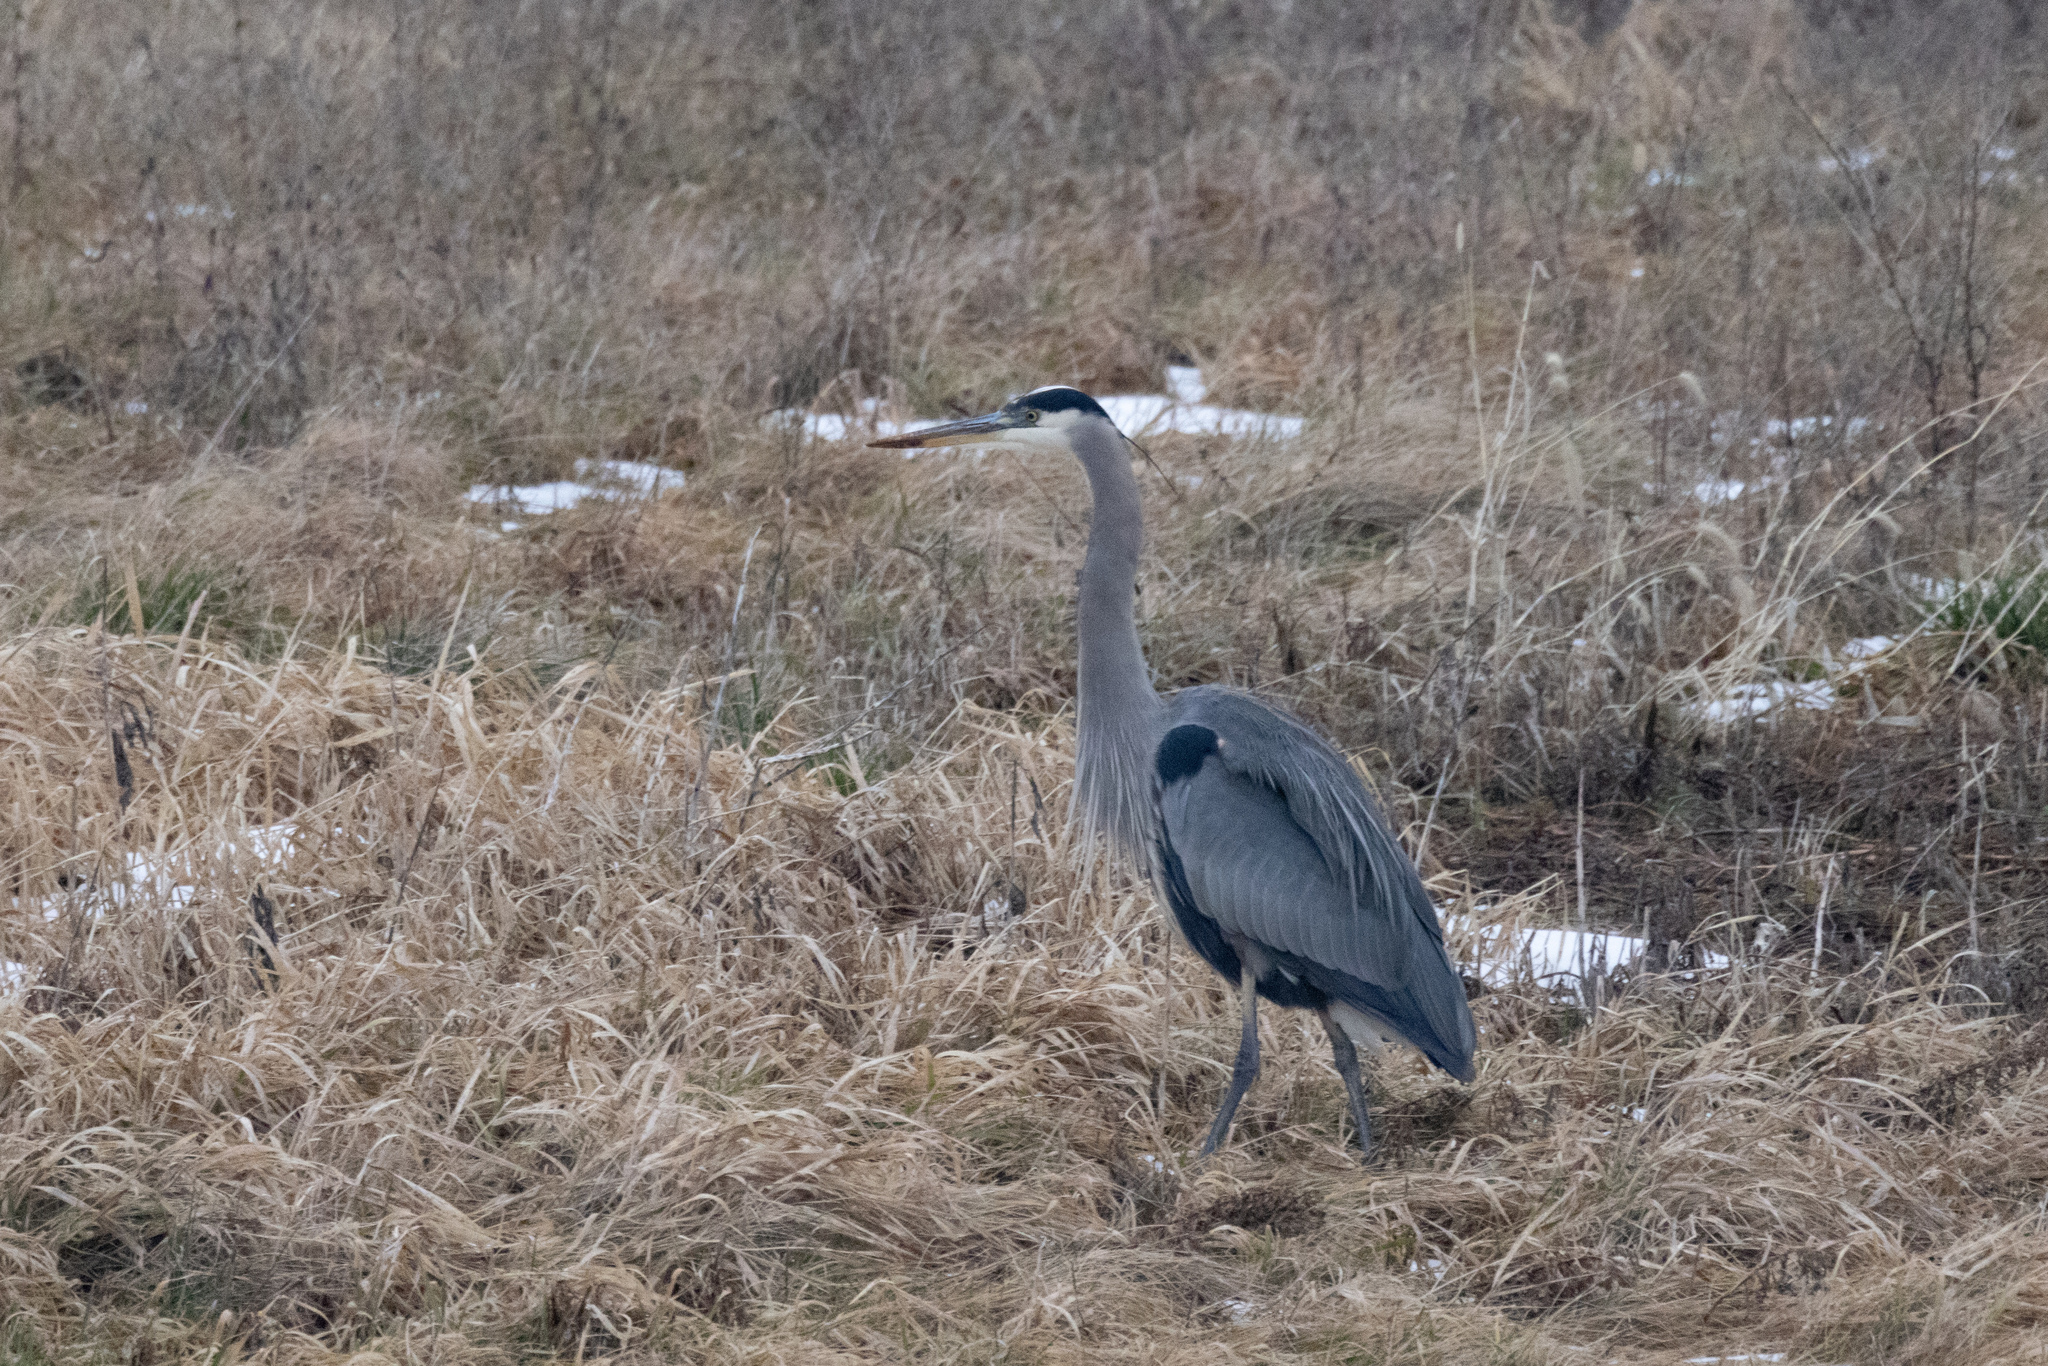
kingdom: Animalia
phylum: Chordata
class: Aves
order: Pelecaniformes
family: Ardeidae
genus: Ardea
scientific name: Ardea herodias
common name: Great blue heron
